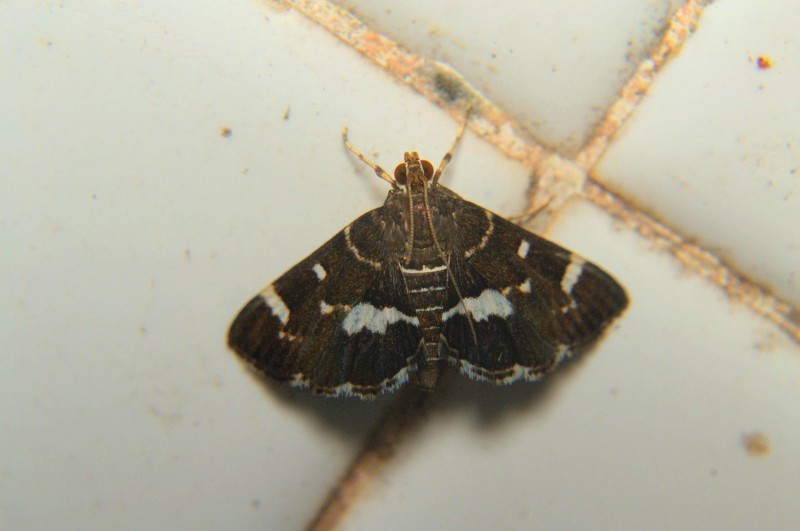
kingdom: Animalia
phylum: Arthropoda
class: Insecta
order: Lepidoptera
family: Crambidae
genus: Hymenia
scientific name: Hymenia perspectalis
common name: Spotted beet webworm
